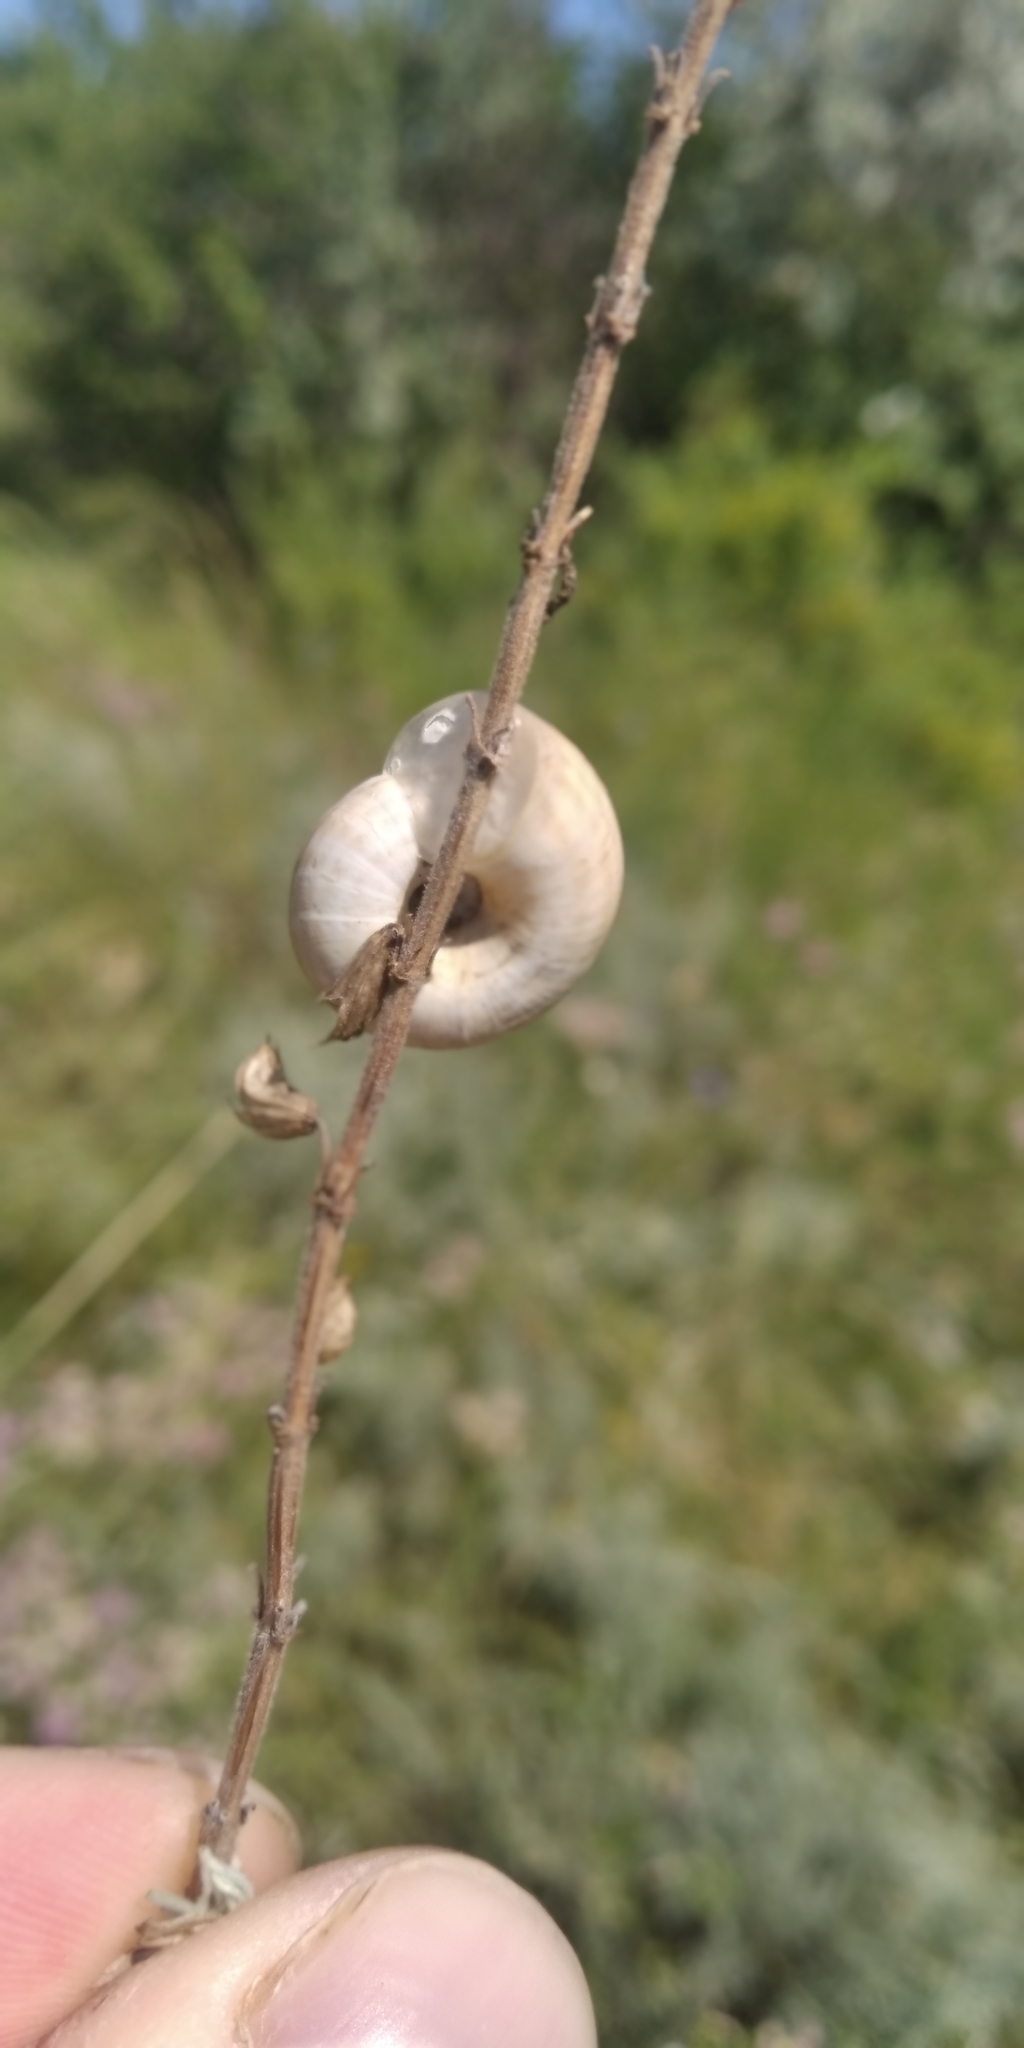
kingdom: Animalia
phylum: Mollusca
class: Gastropoda
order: Stylommatophora
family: Geomitridae
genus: Xeropicta
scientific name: Xeropicta derbentina
